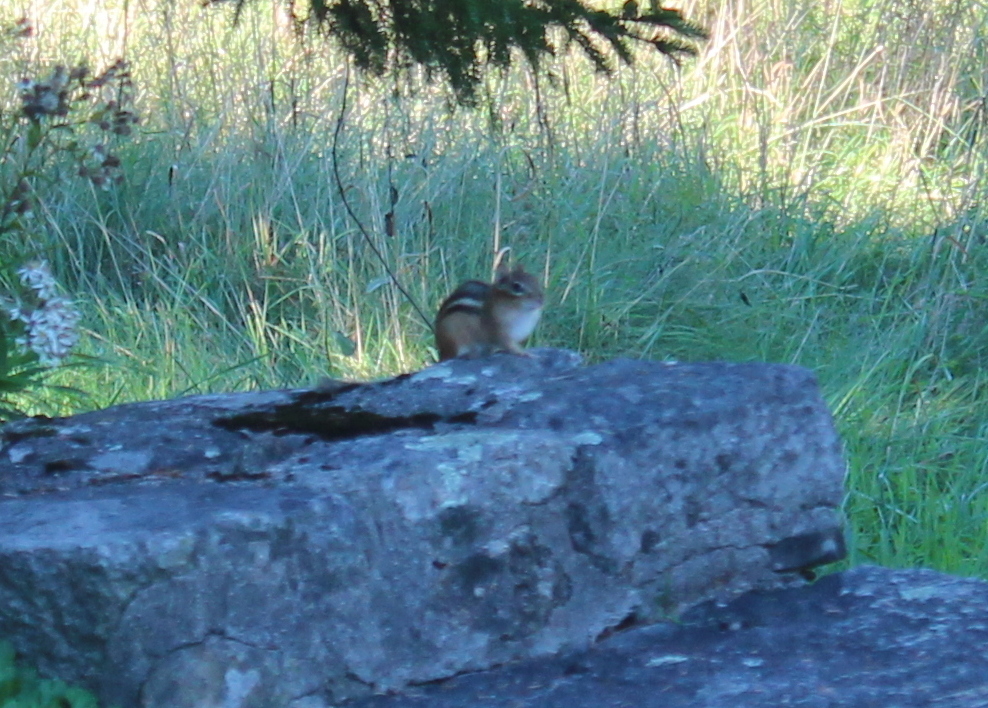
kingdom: Animalia
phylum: Chordata
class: Mammalia
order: Rodentia
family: Sciuridae
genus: Tamias
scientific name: Tamias striatus
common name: Eastern chipmunk
